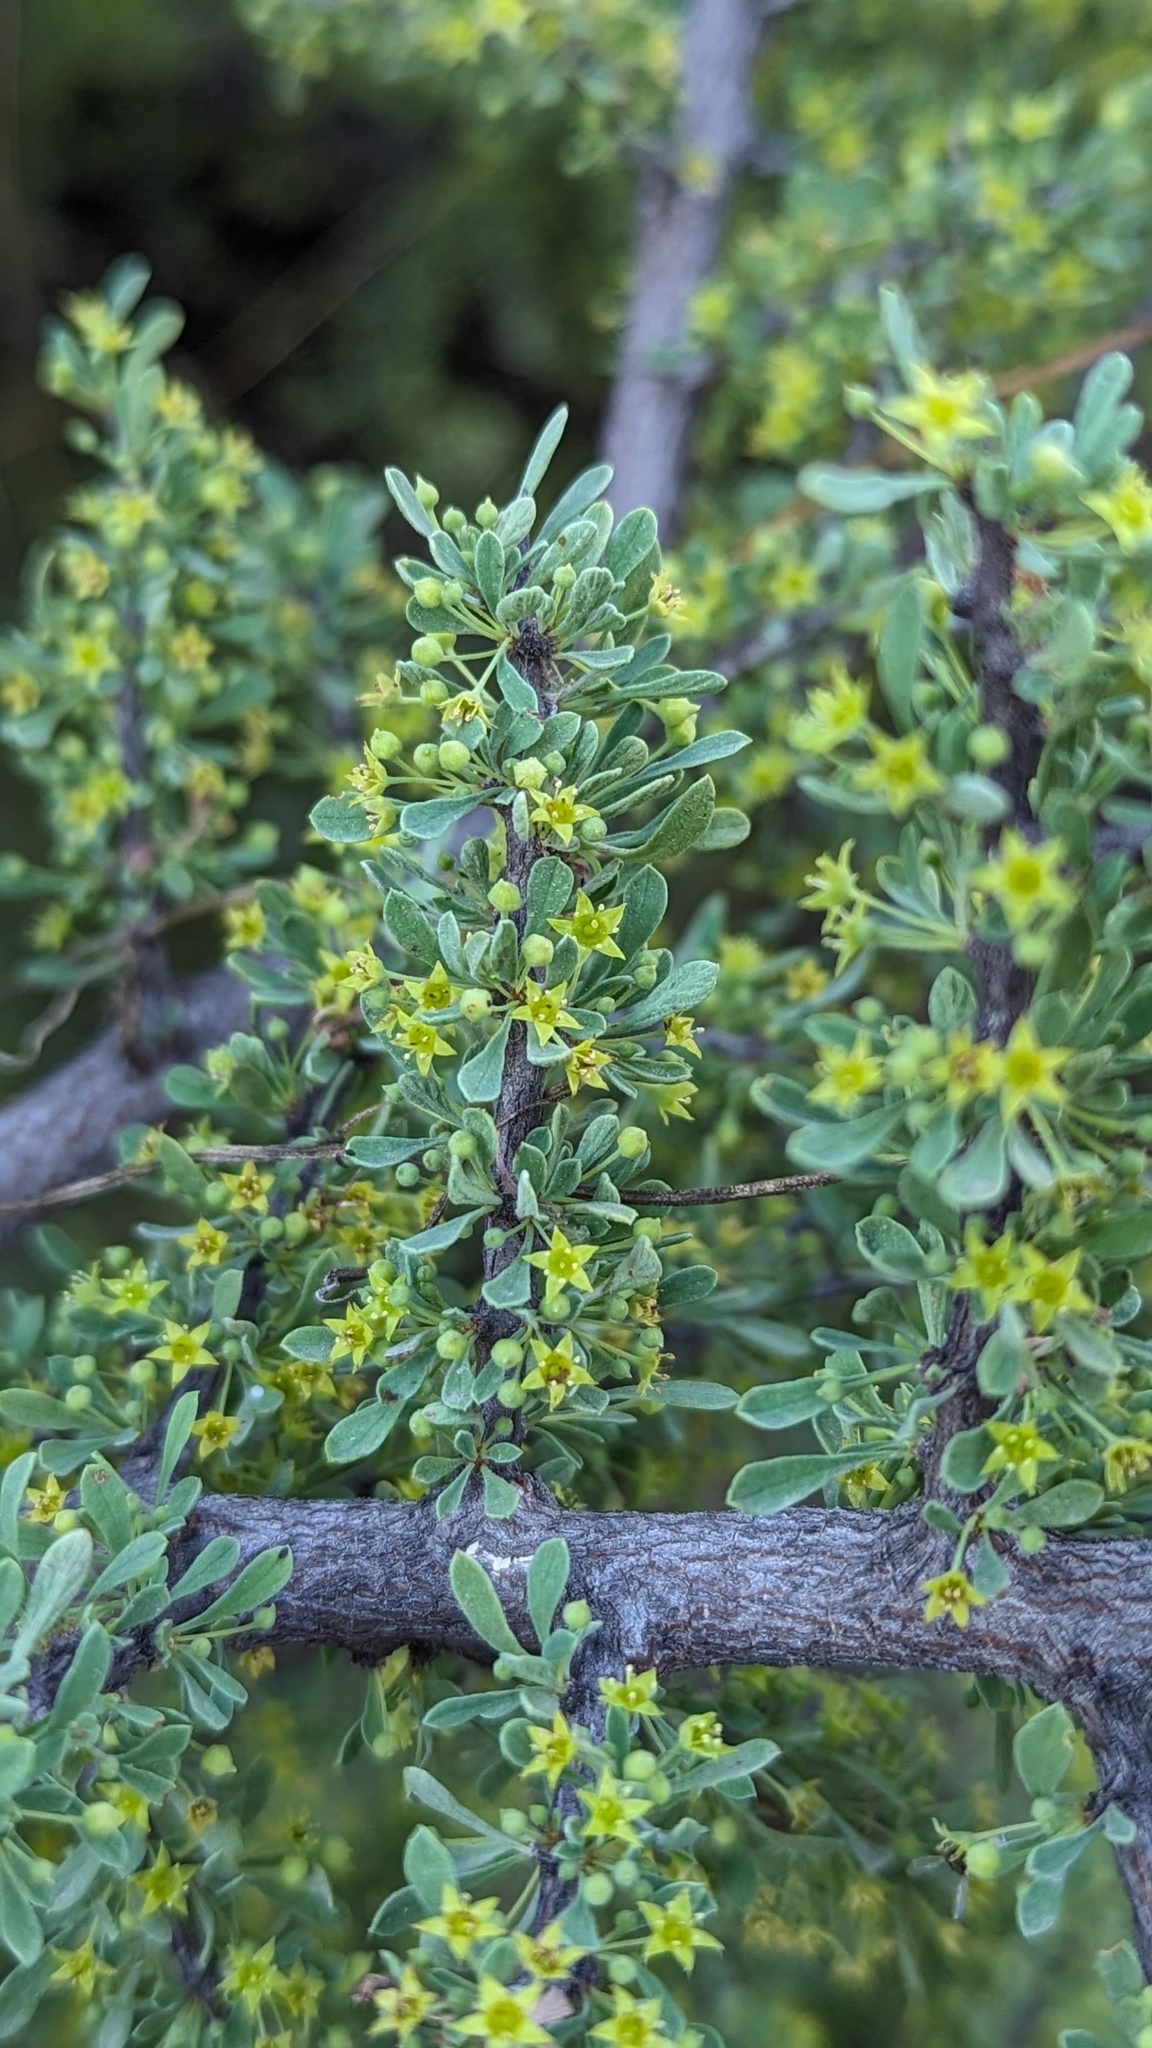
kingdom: Plantae
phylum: Tracheophyta
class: Magnoliopsida
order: Rosales
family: Rhamnaceae
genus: Condalia
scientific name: Condalia globosa
